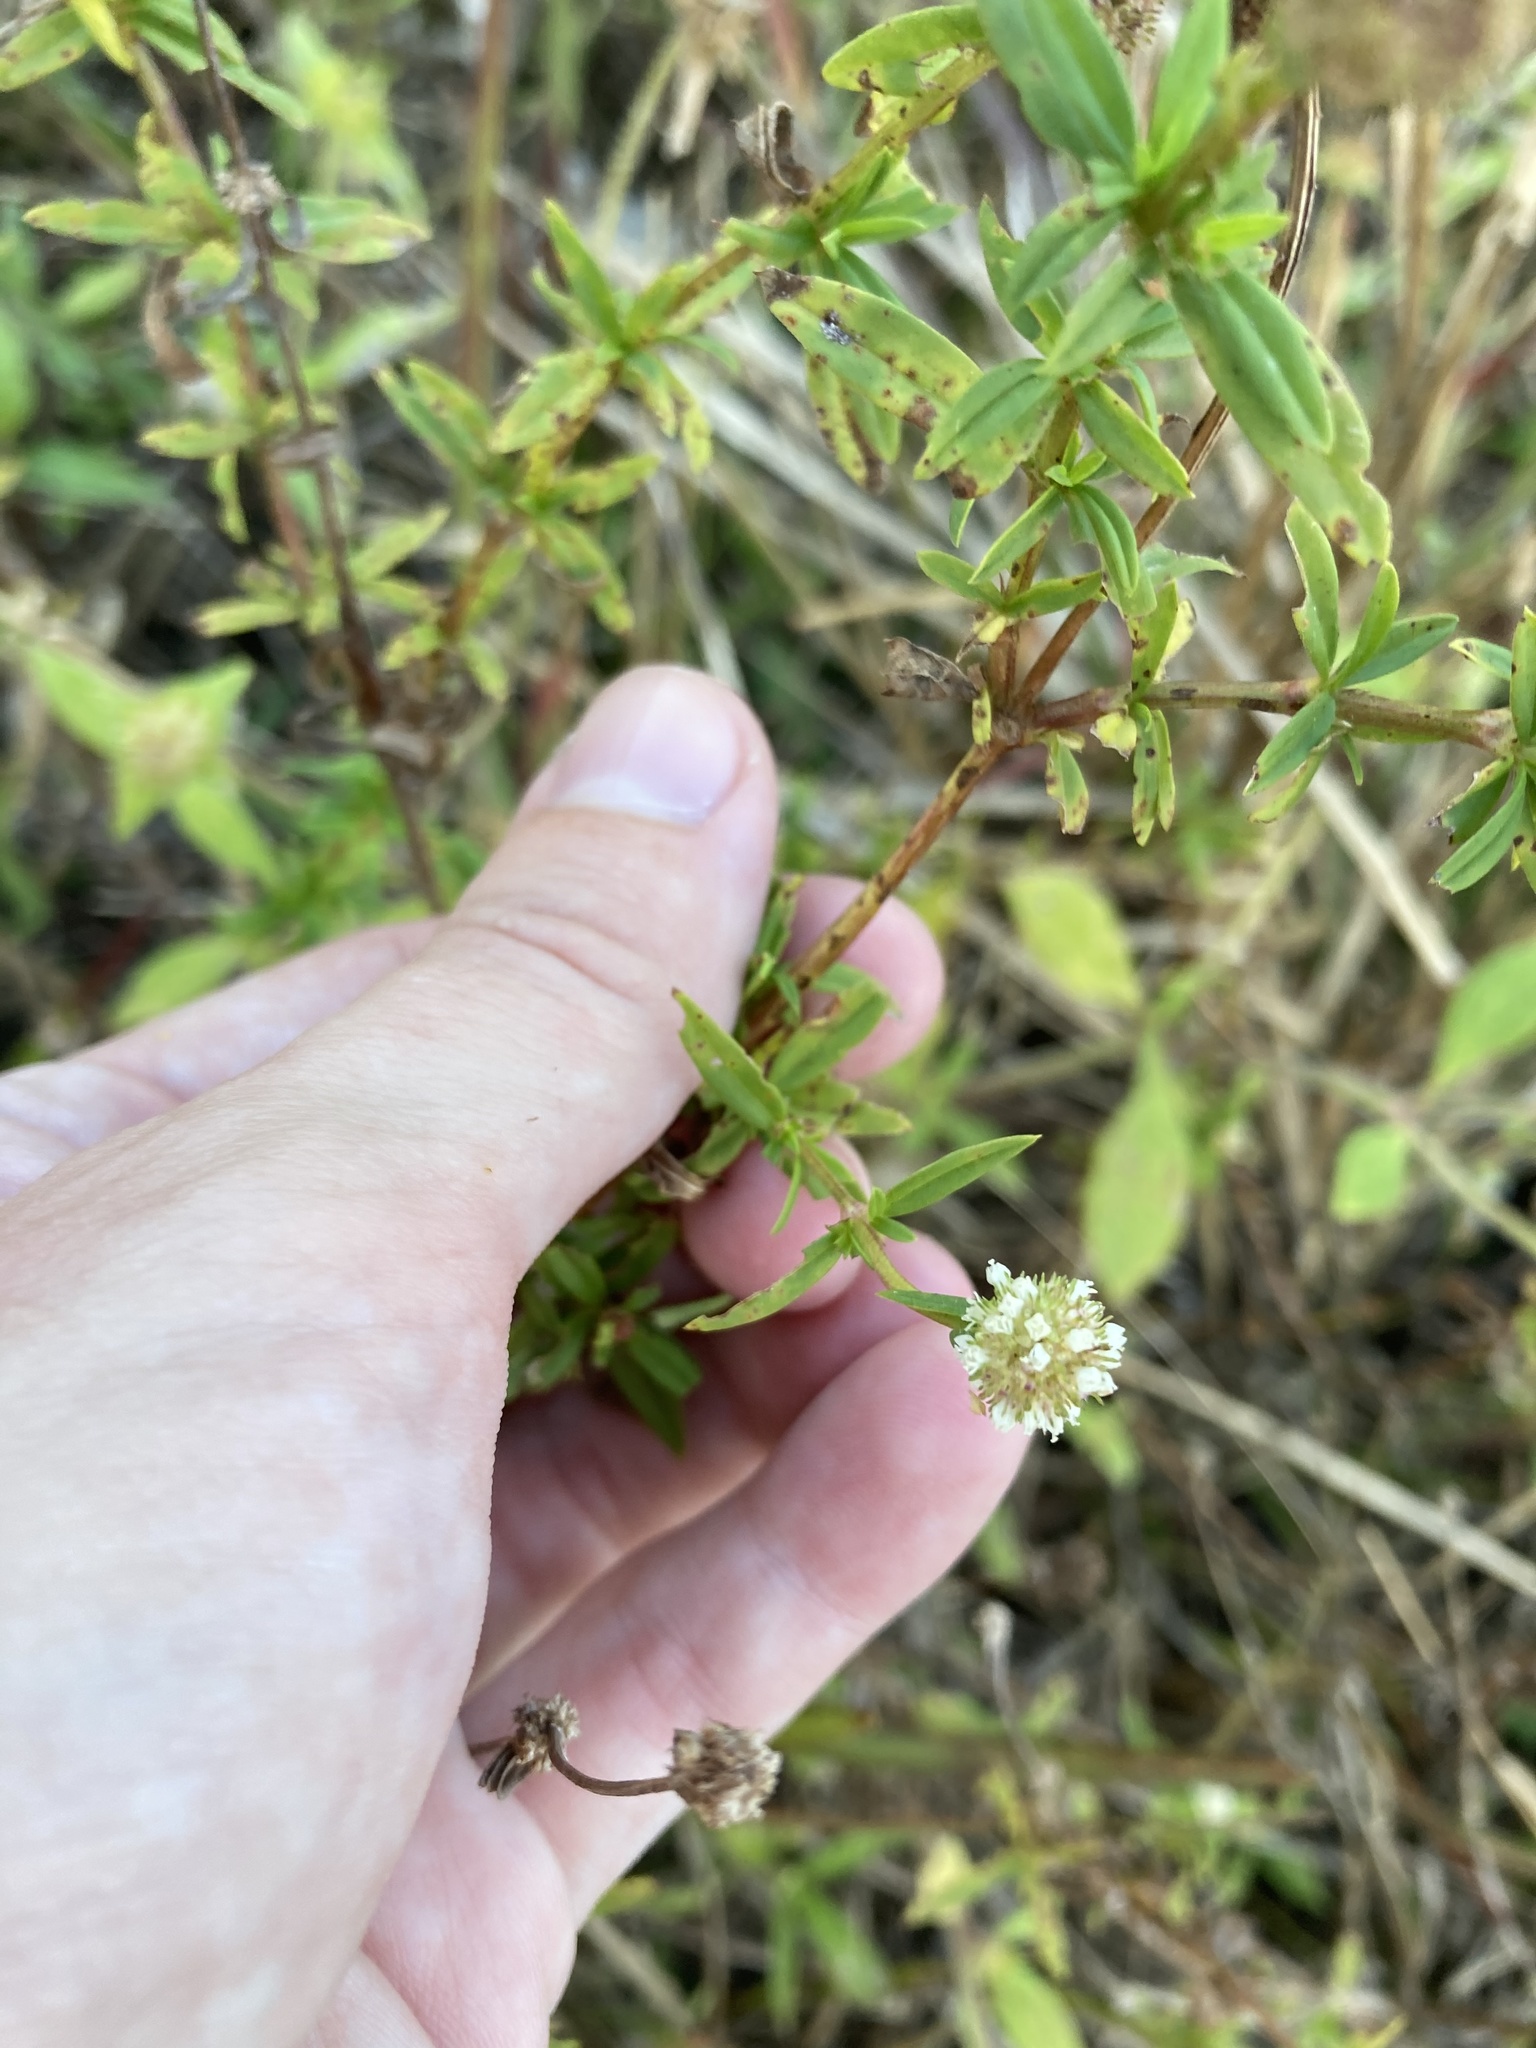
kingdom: Plantae
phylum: Tracheophyta
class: Magnoliopsida
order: Gentianales
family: Rubiaceae
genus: Spermacoce
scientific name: Spermacoce verticillata
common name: Shrubby false buttonweed
